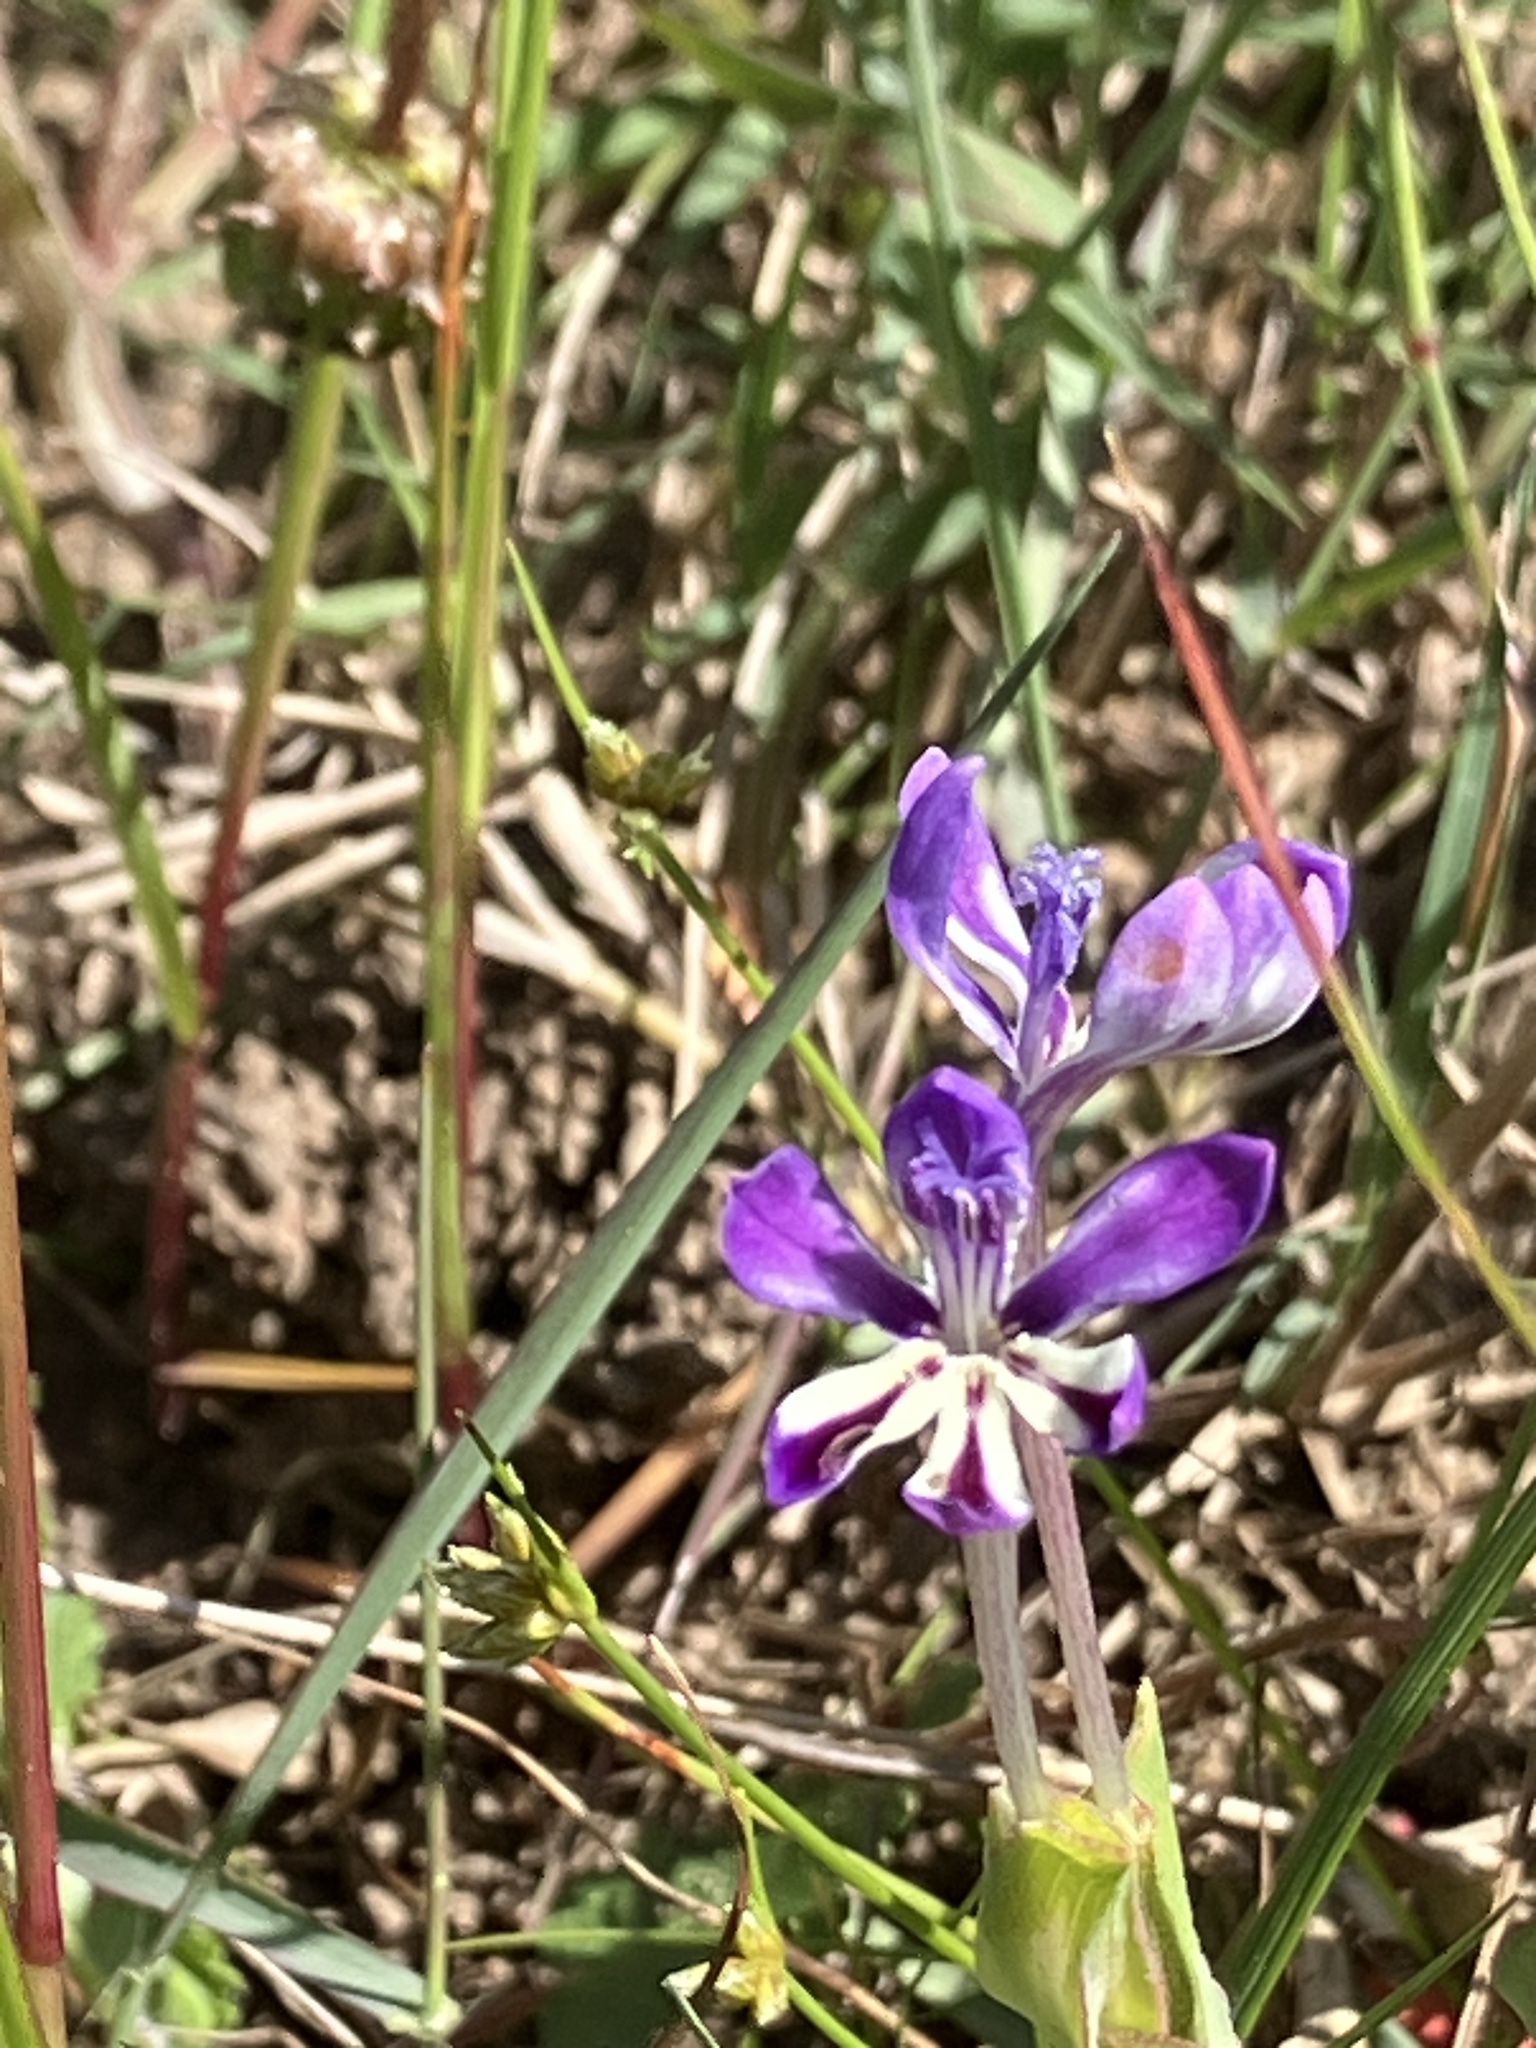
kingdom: Plantae
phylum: Tracheophyta
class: Liliopsida
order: Asparagales
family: Iridaceae
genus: Lapeirousia
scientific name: Lapeirousia jacquinii
